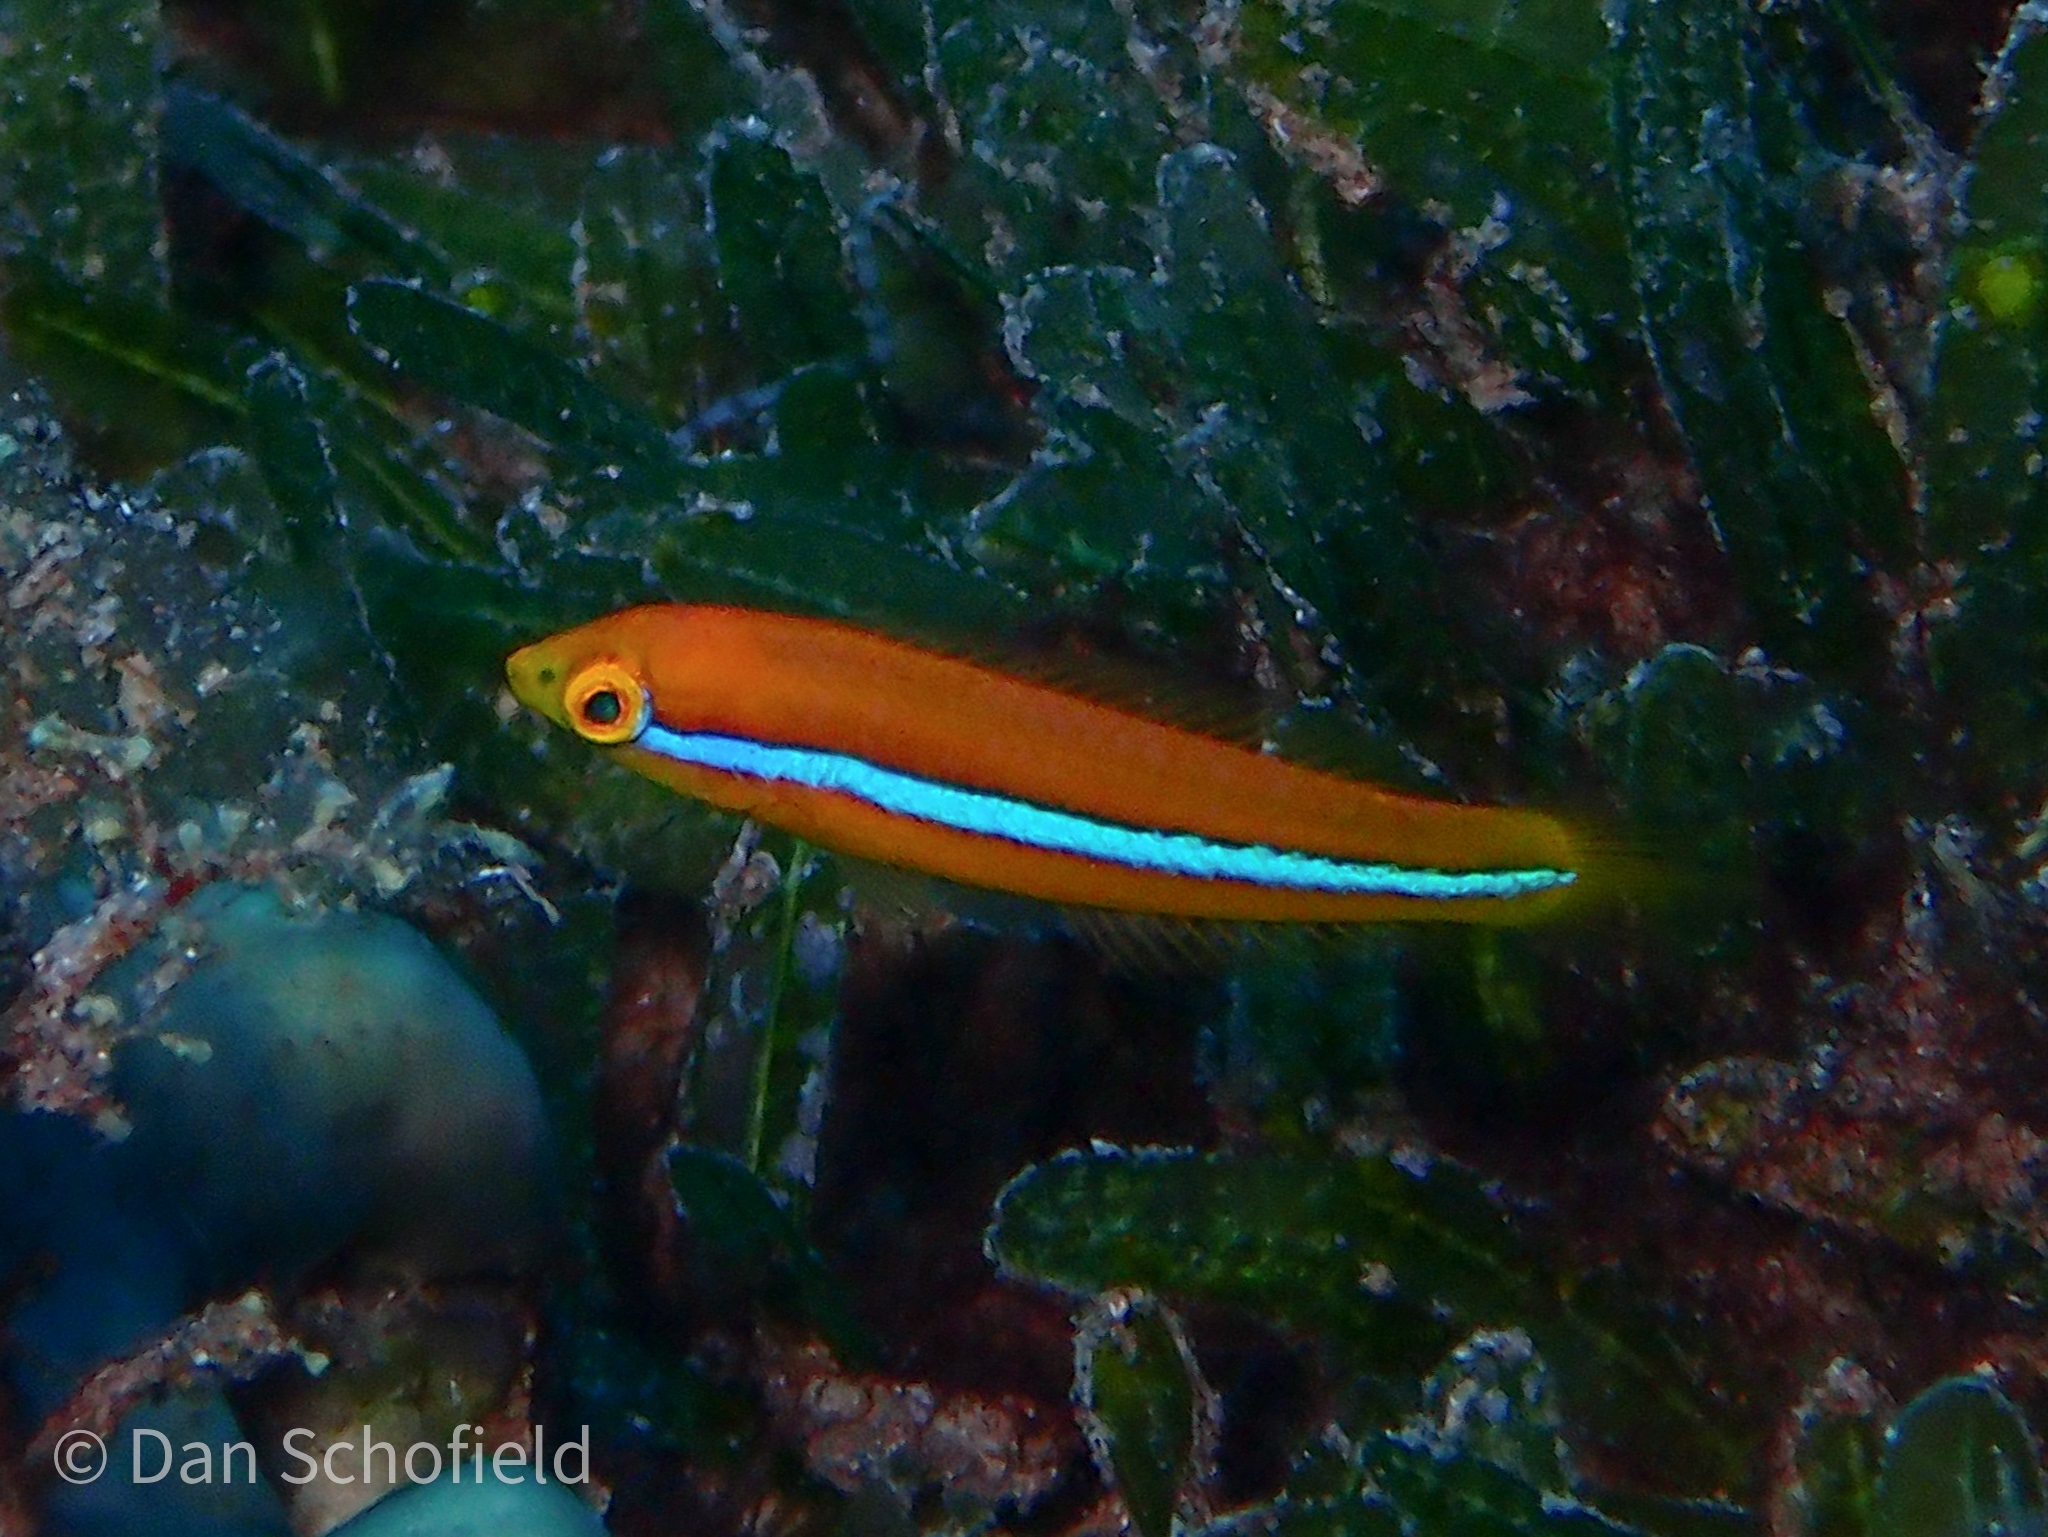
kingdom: Animalia
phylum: Chordata
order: Perciformes
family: Labridae
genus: Halichoeres
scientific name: Halichoeres garnoti
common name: Yellowhead wrasse
